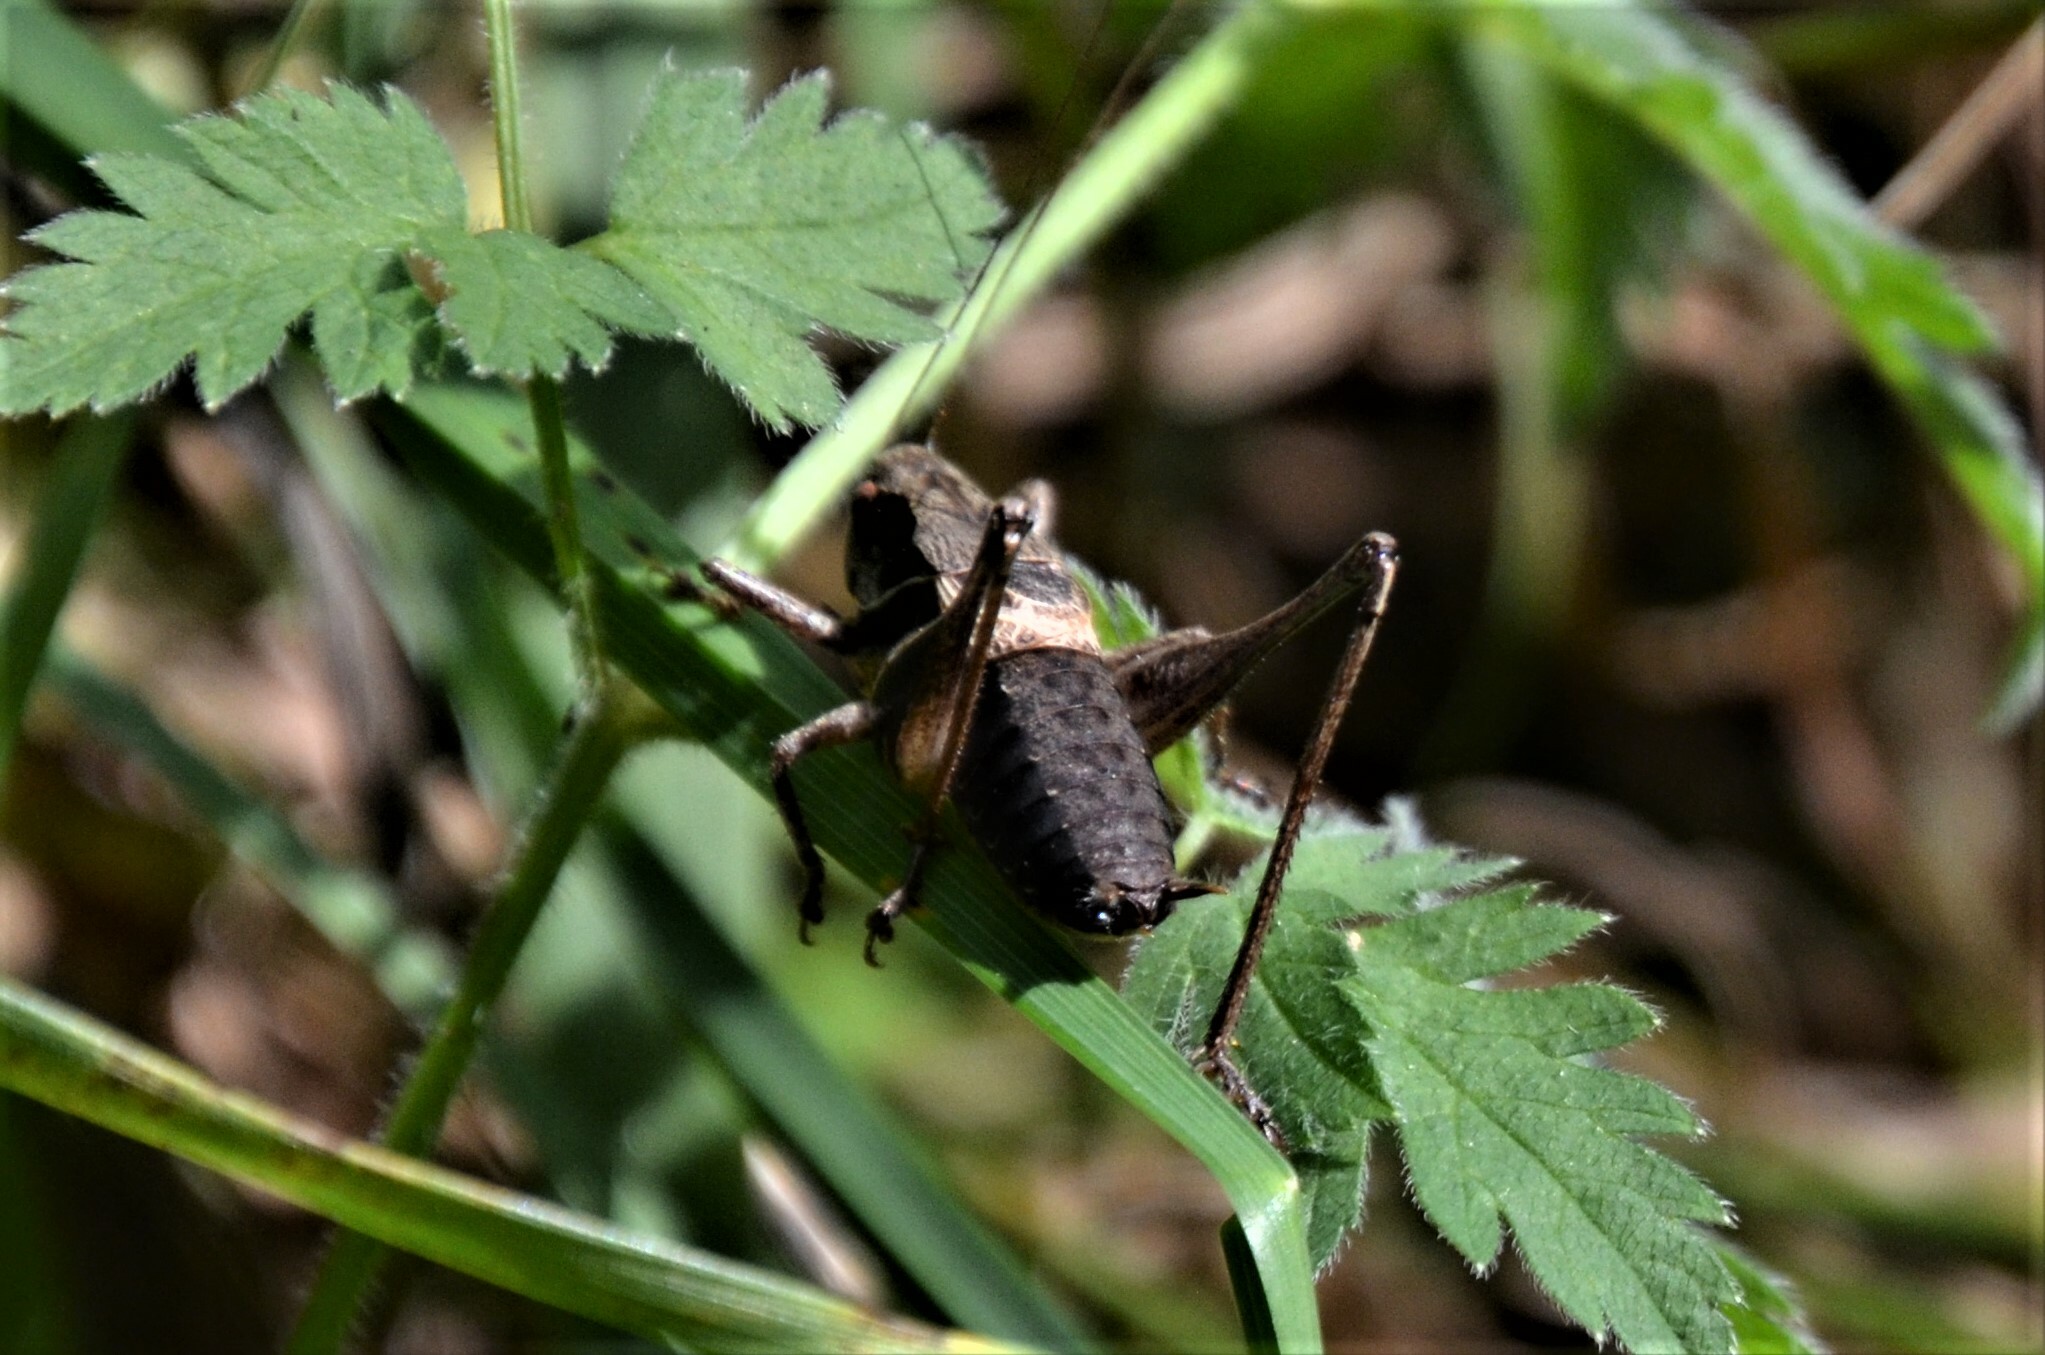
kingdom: Animalia
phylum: Arthropoda
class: Insecta
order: Orthoptera
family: Tettigoniidae
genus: Pholidoptera
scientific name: Pholidoptera griseoaptera
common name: Dark bush-cricket
